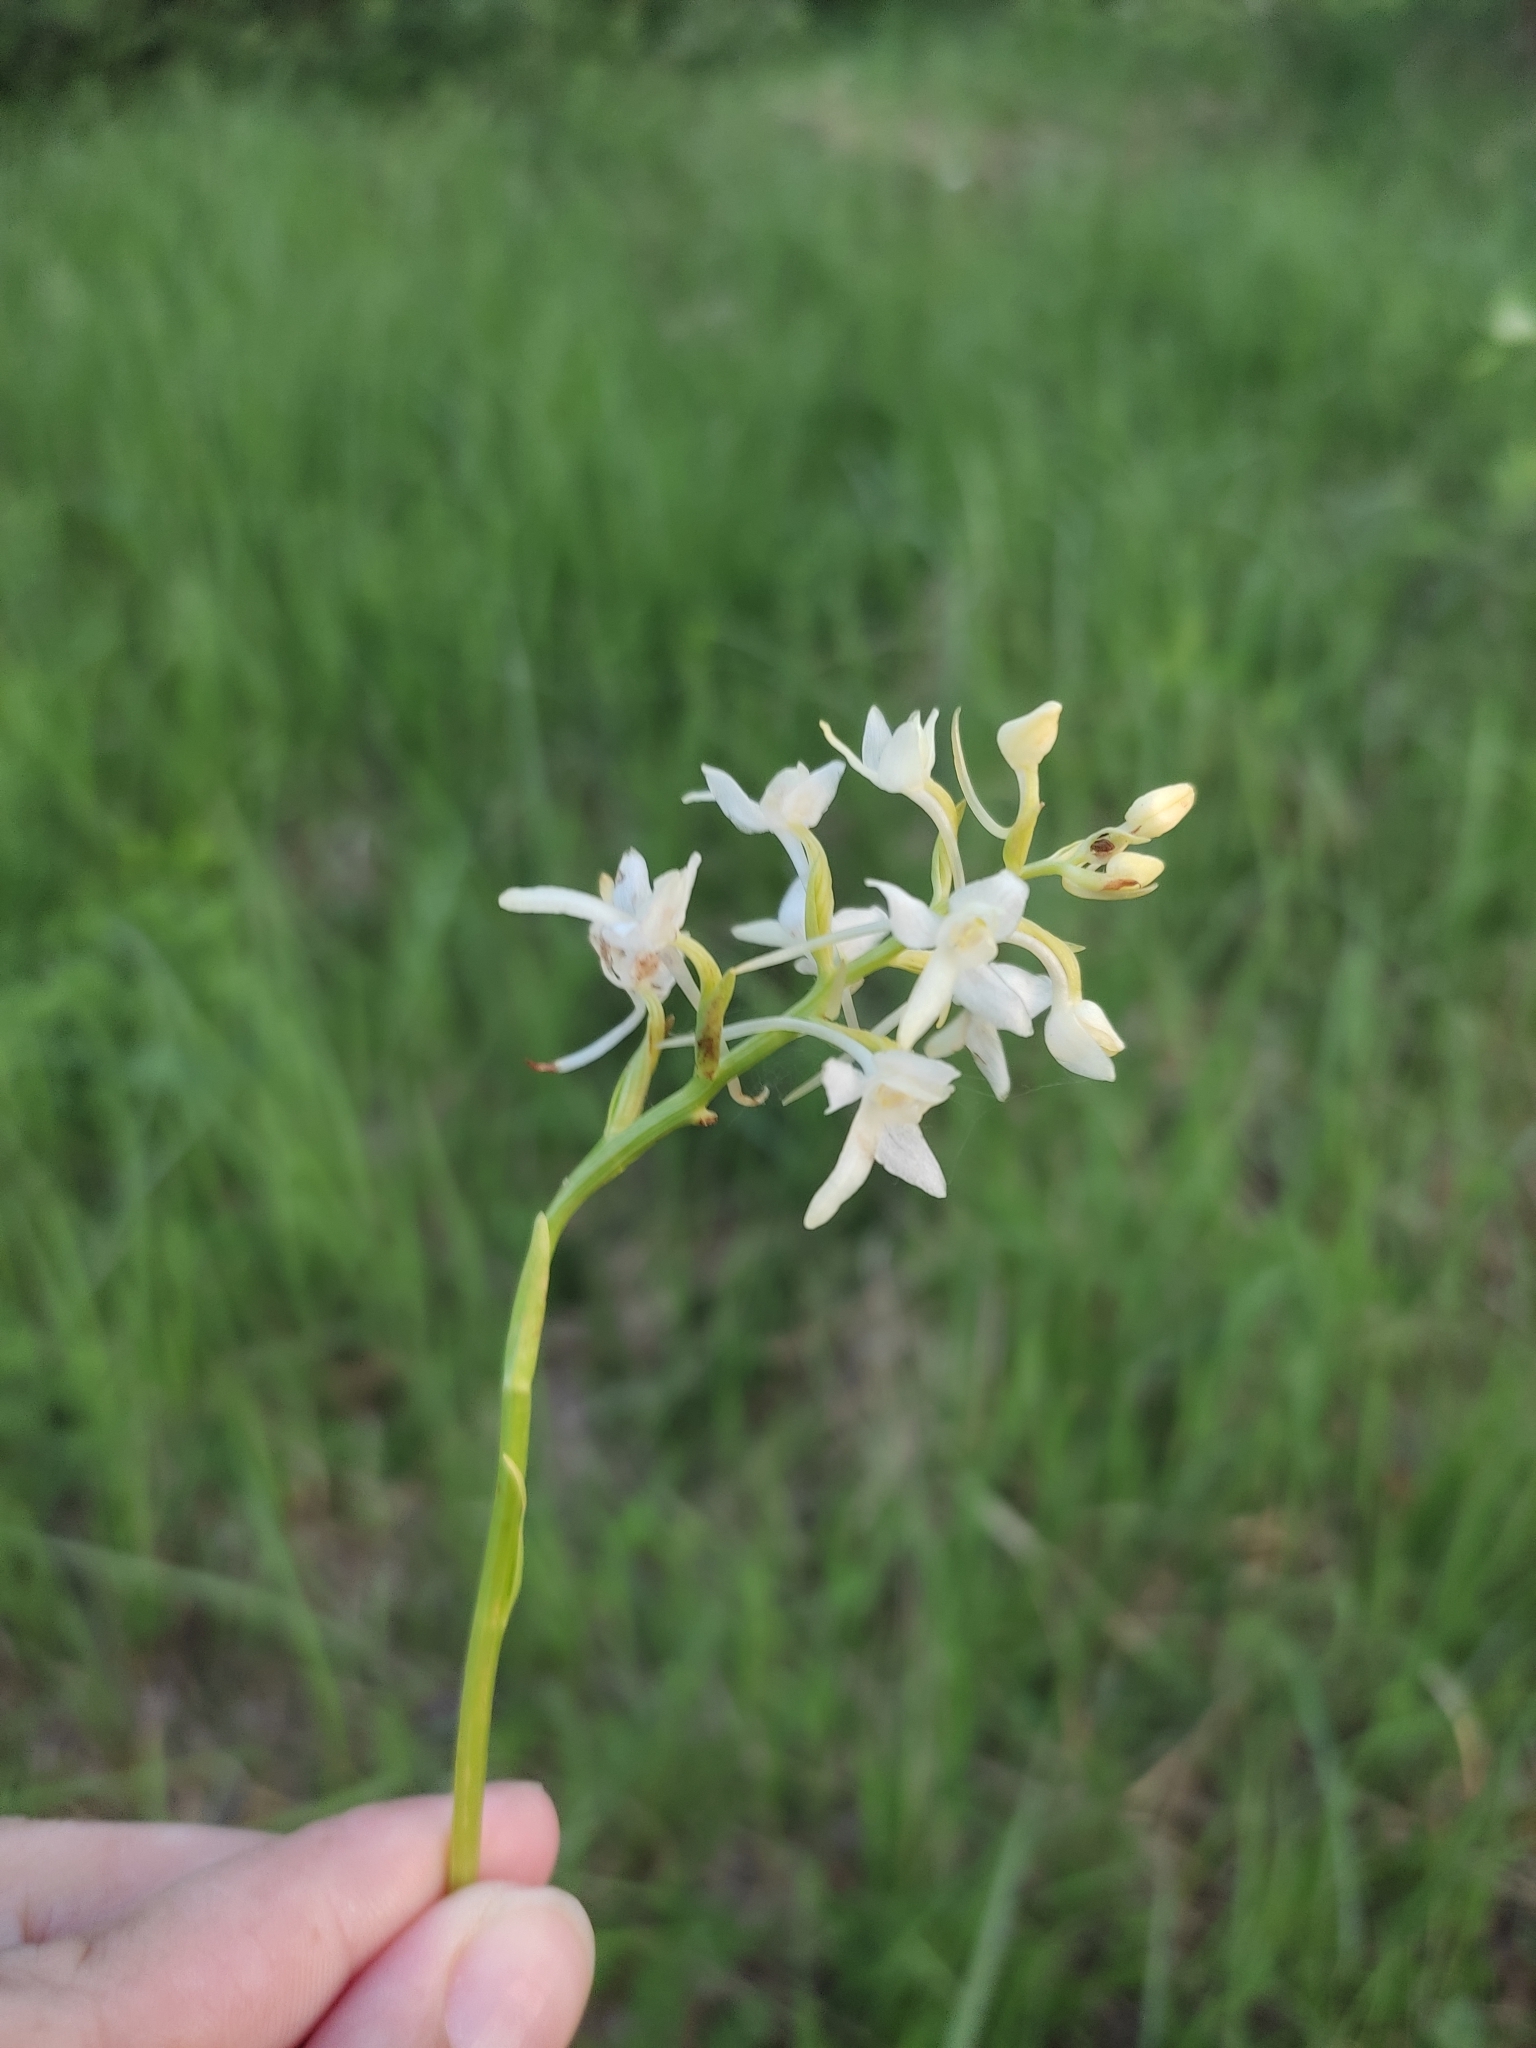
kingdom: Plantae
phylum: Tracheophyta
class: Liliopsida
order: Asparagales
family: Orchidaceae
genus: Platanthera
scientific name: Platanthera bifolia
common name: Lesser butterfly-orchid
